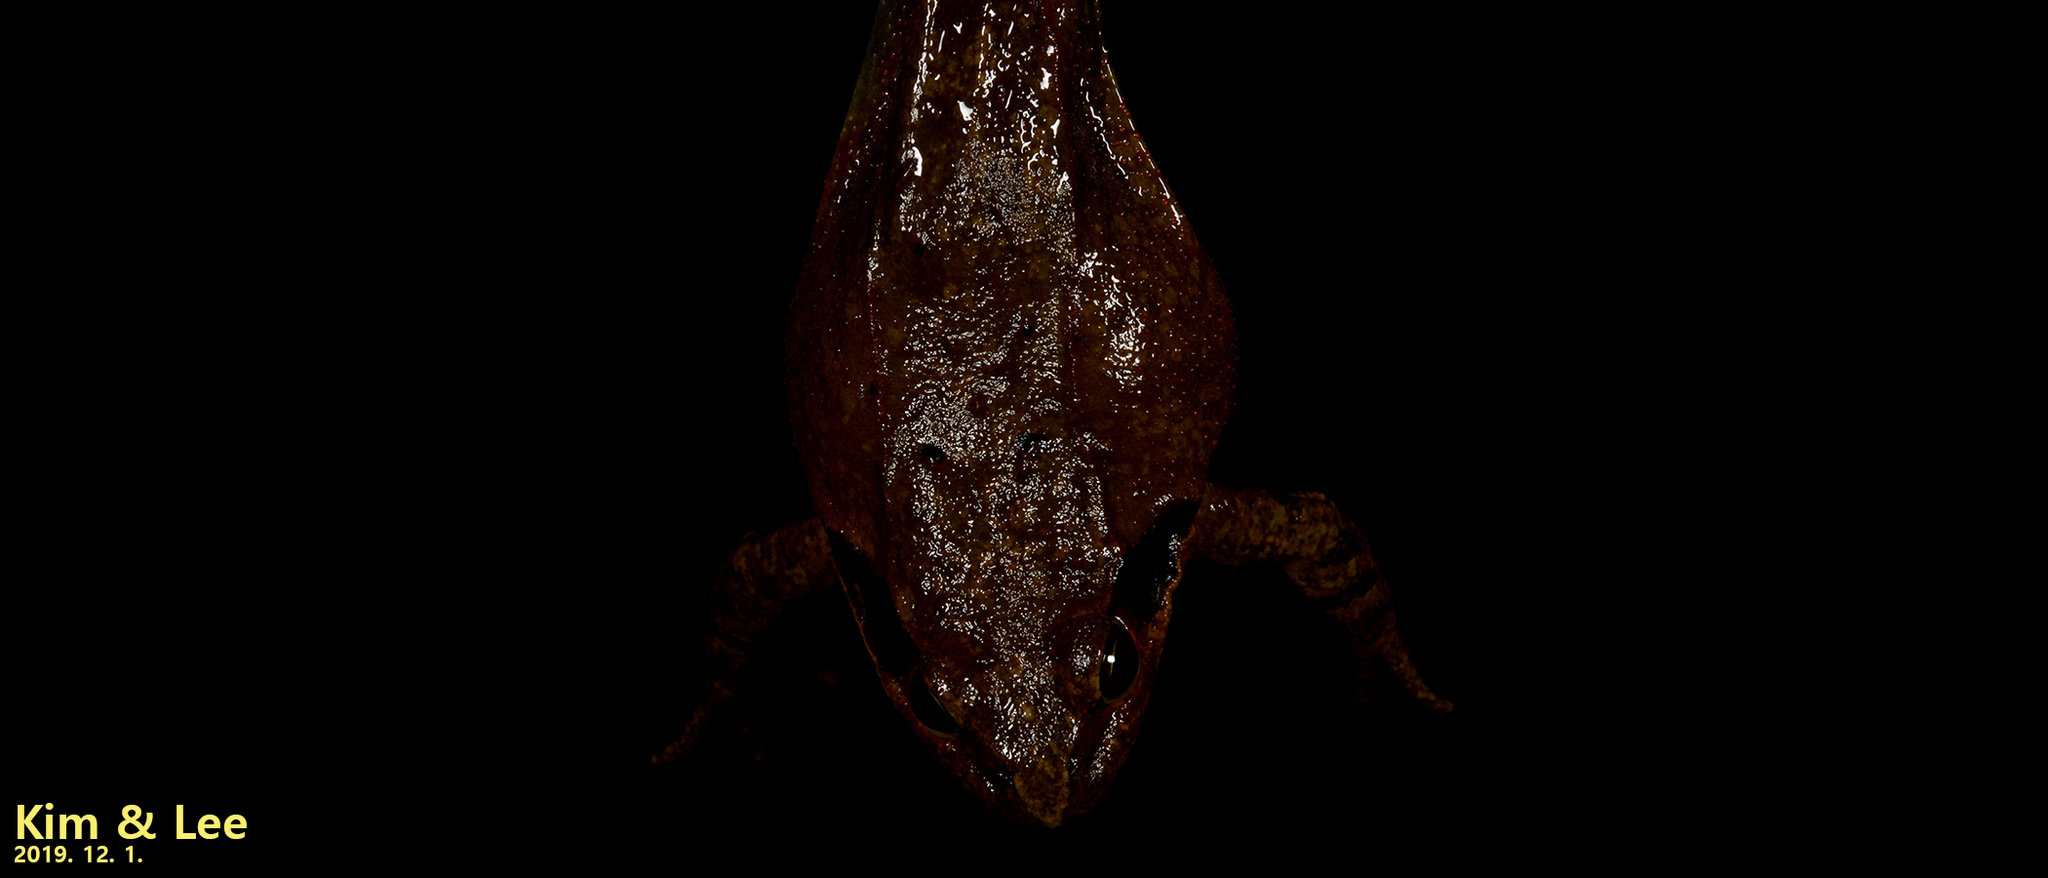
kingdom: Animalia
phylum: Chordata
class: Amphibia
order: Anura
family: Ranidae
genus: Rana
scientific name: Rana dybowskii
